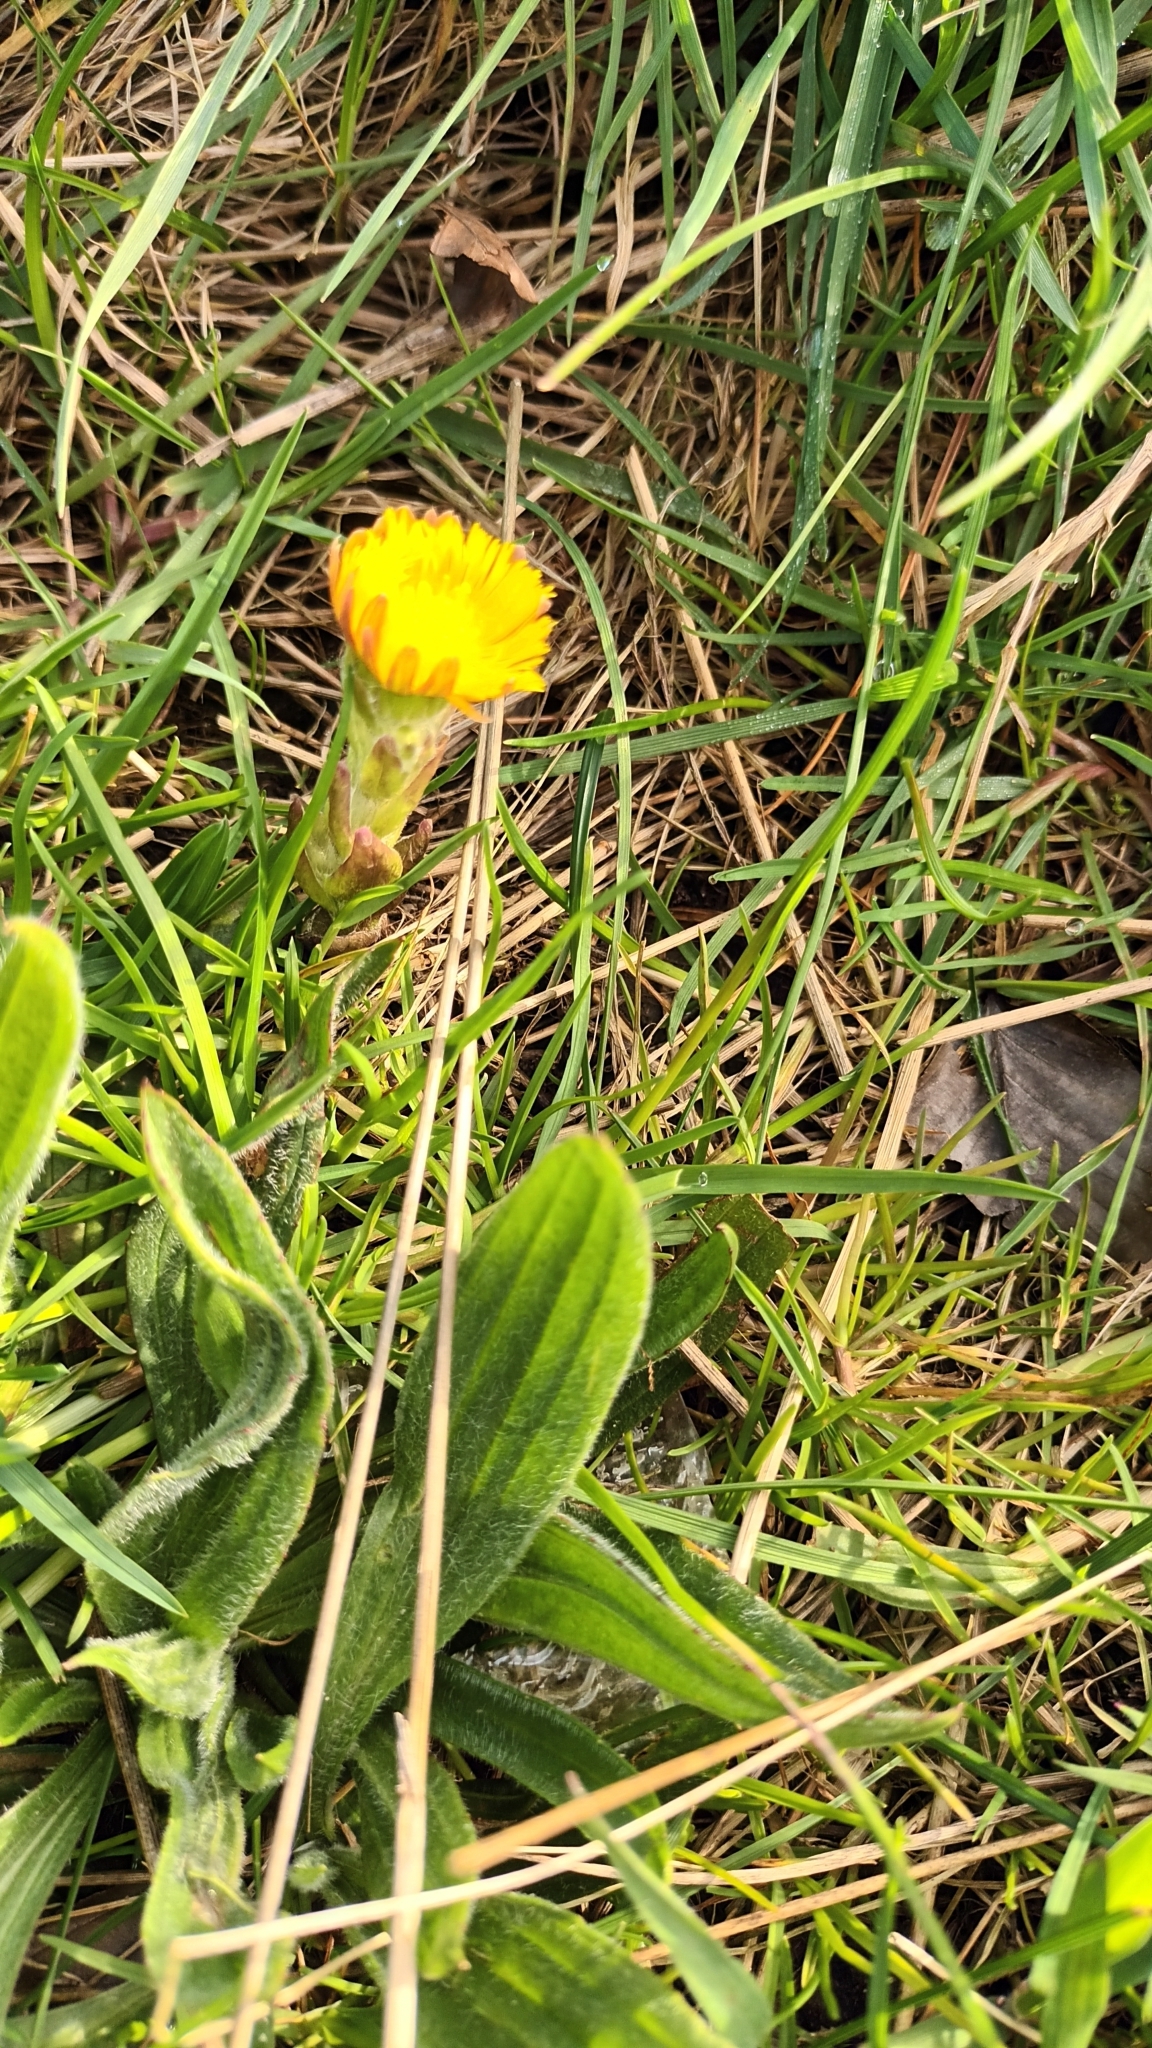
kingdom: Plantae
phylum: Tracheophyta
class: Magnoliopsida
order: Asterales
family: Asteraceae
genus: Tussilago
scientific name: Tussilago farfara
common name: Coltsfoot
